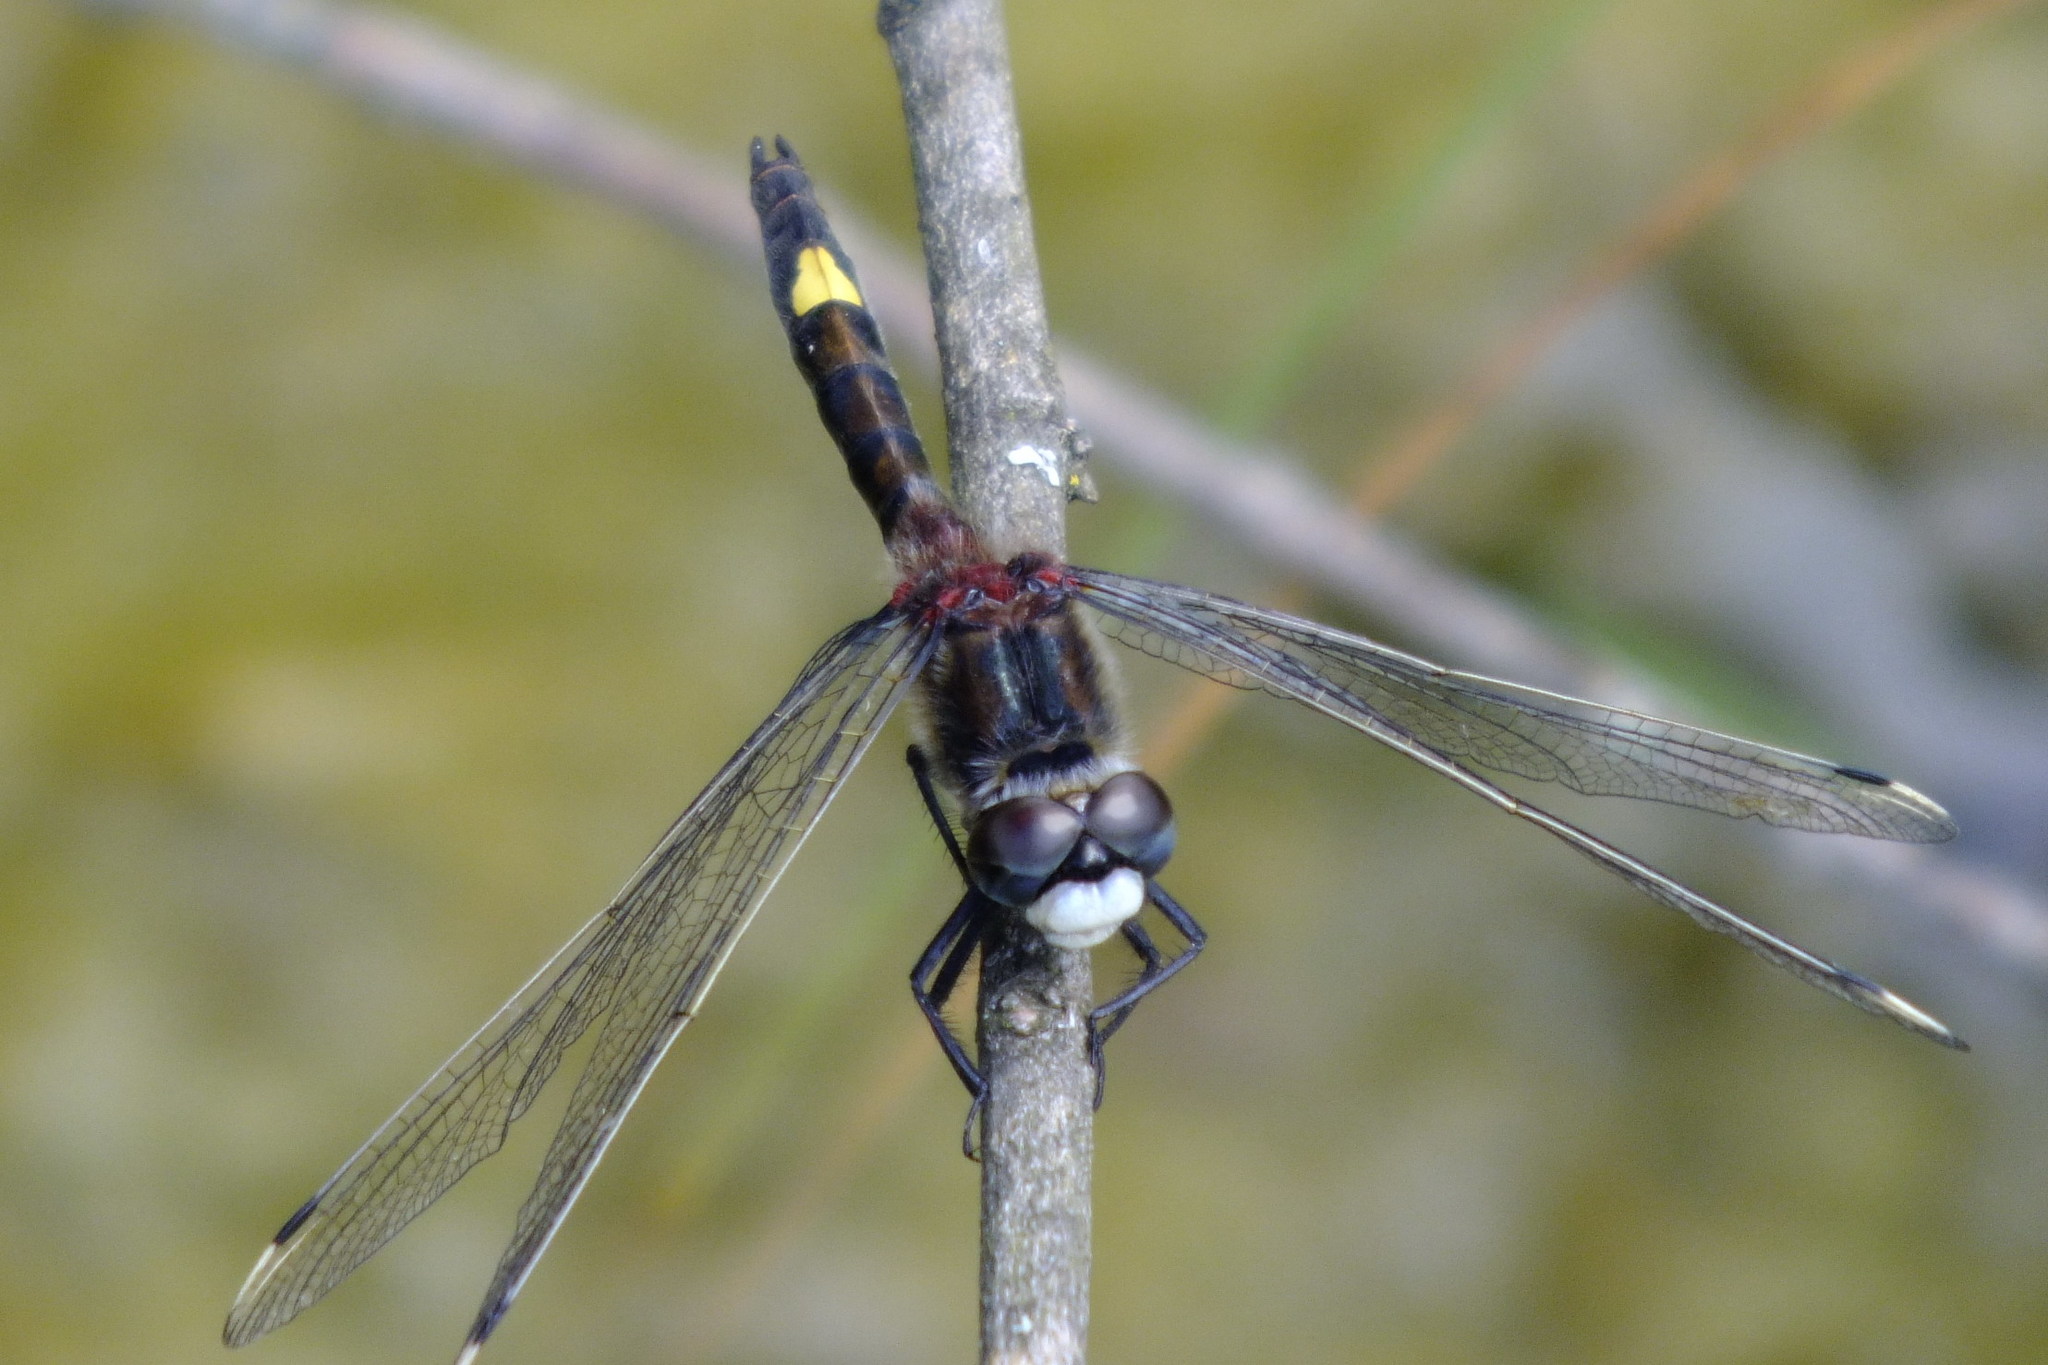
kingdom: Animalia
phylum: Arthropoda
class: Insecta
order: Odonata
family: Libellulidae
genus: Leucorrhinia
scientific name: Leucorrhinia pectoralis
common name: Yellow-spotted whiteface
